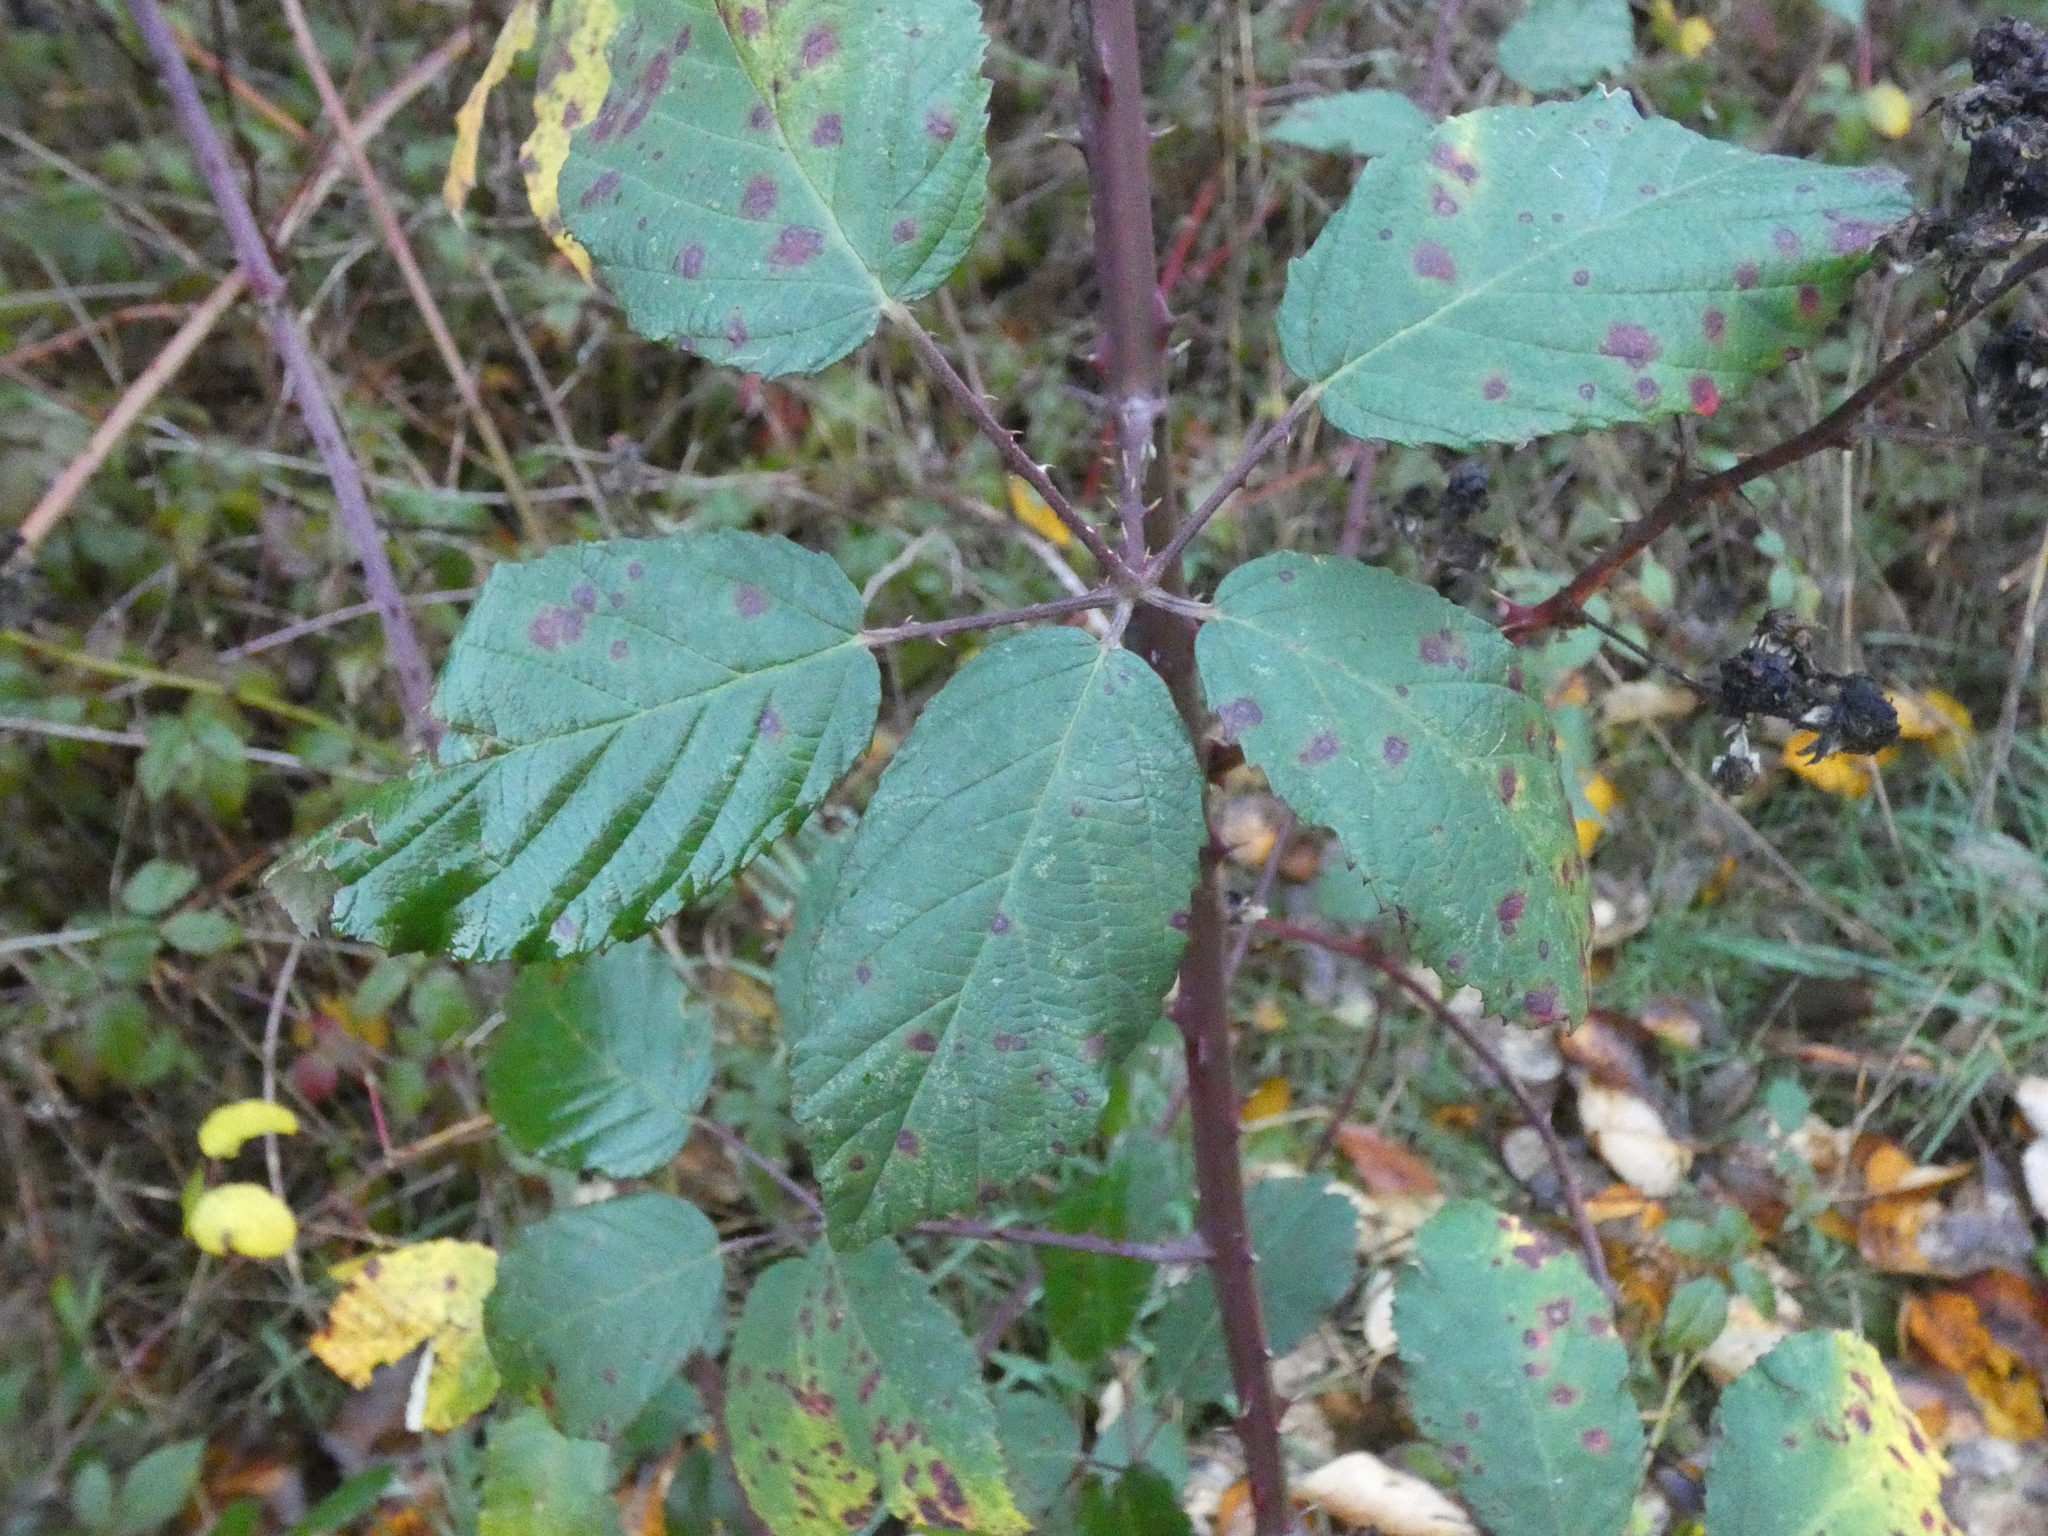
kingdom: Plantae
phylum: Tracheophyta
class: Magnoliopsida
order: Rosales
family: Rosaceae
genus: Rubus
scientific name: Rubus bifrons
